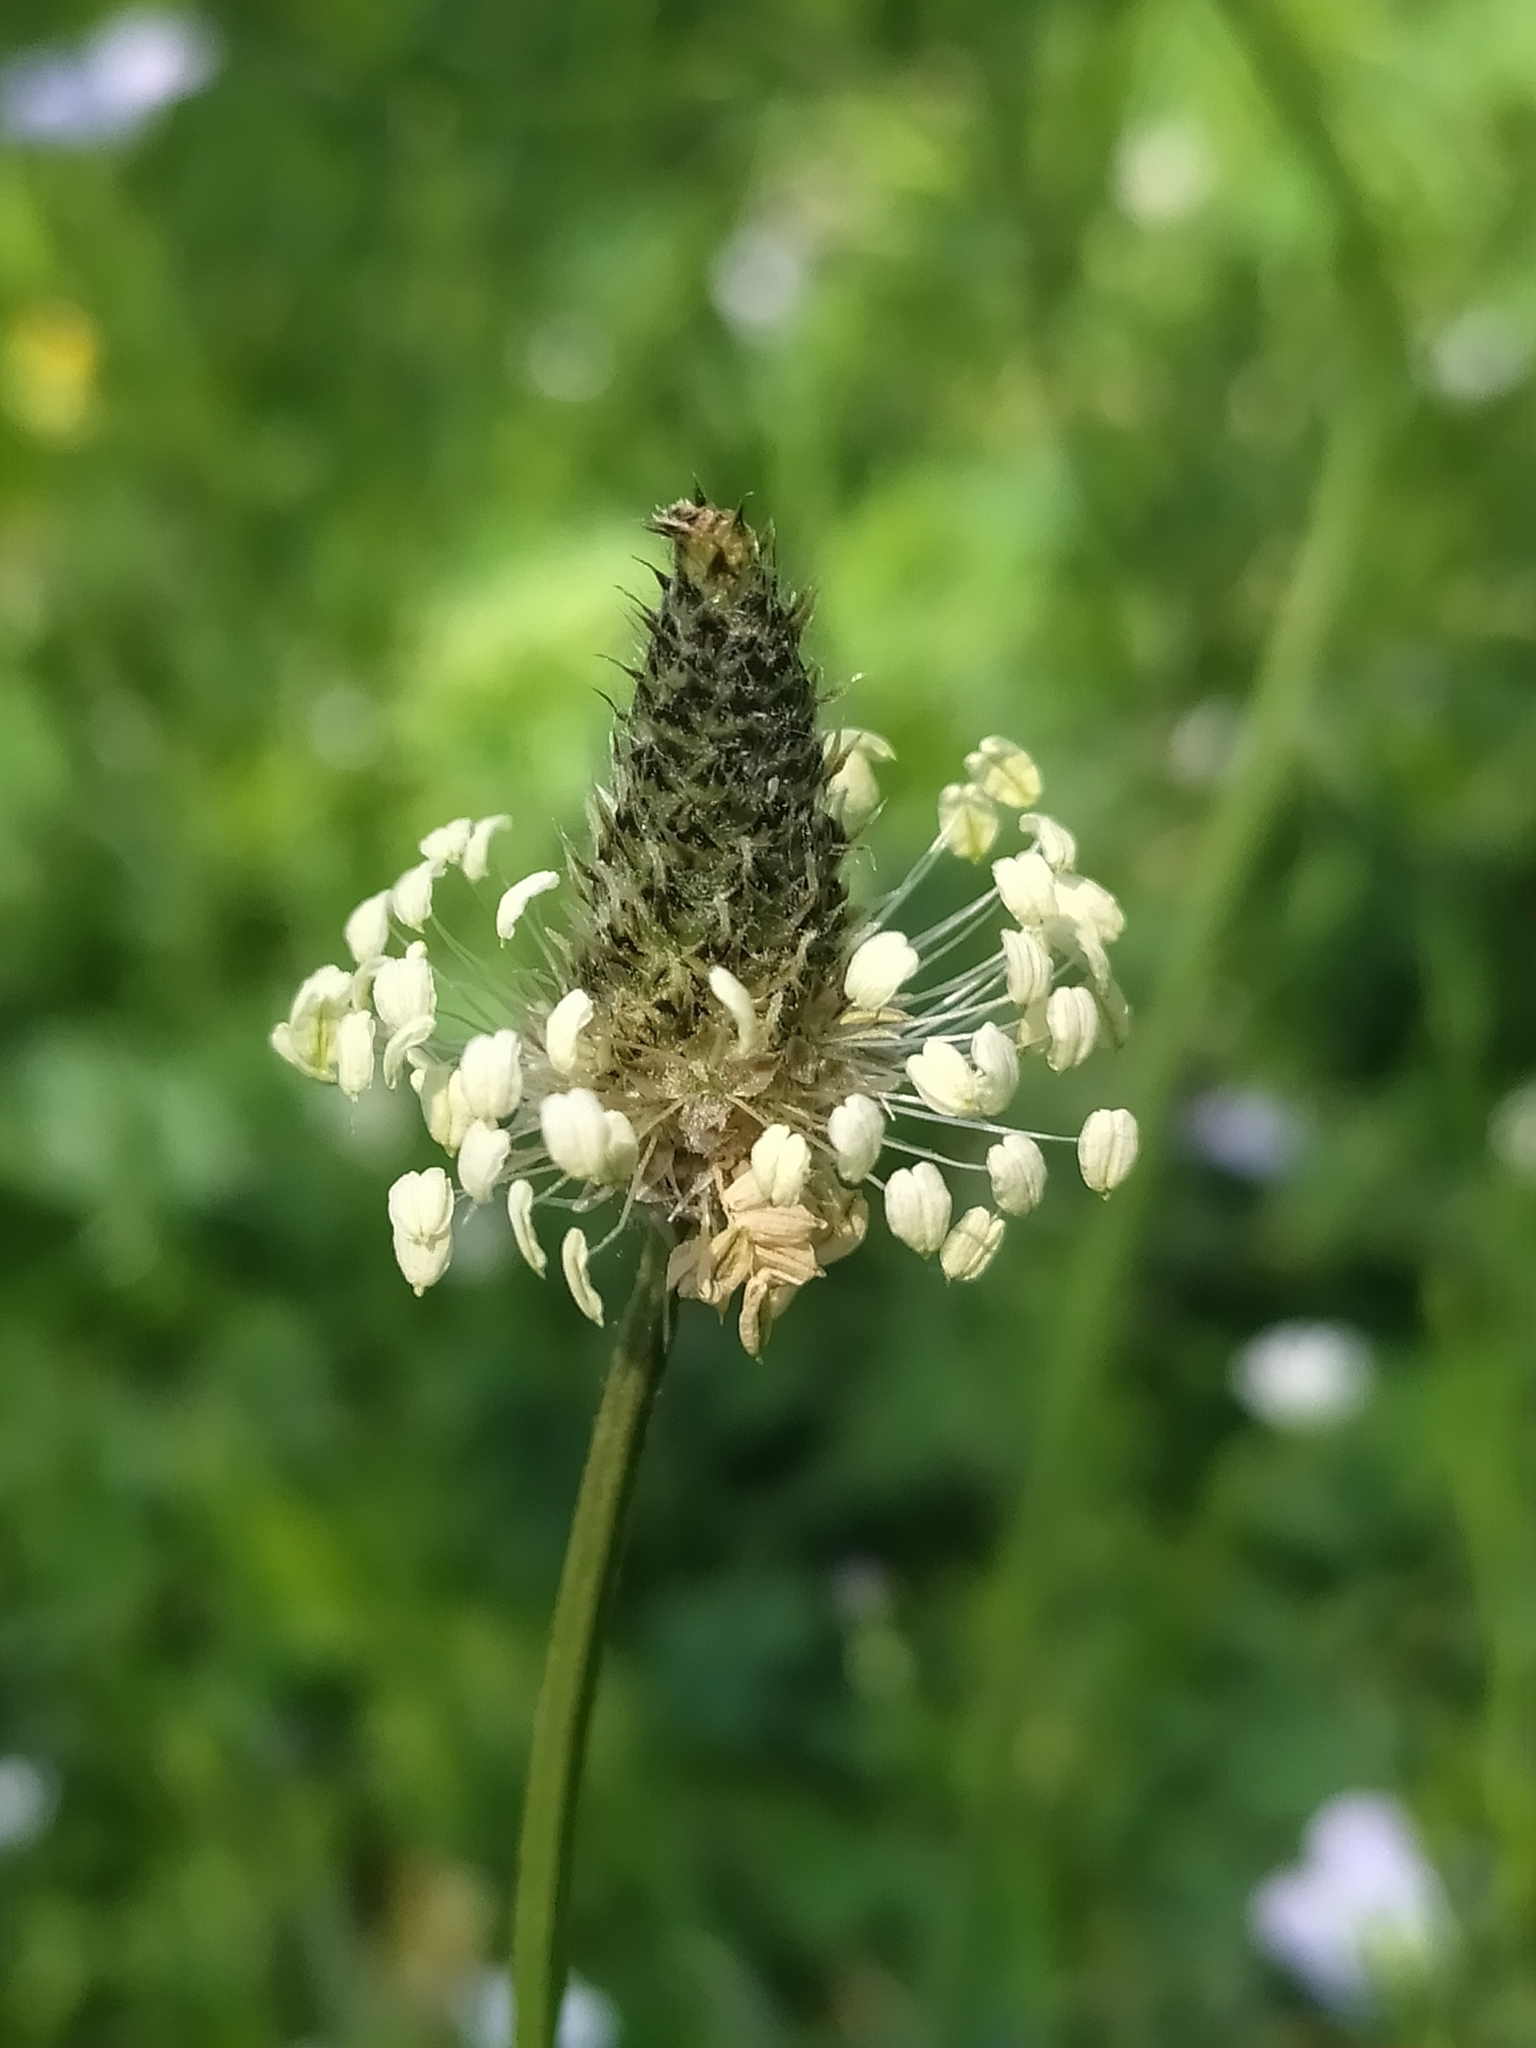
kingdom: Plantae
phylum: Tracheophyta
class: Magnoliopsida
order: Lamiales
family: Plantaginaceae
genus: Plantago
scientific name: Plantago lanceolata
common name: Ribwort plantain
